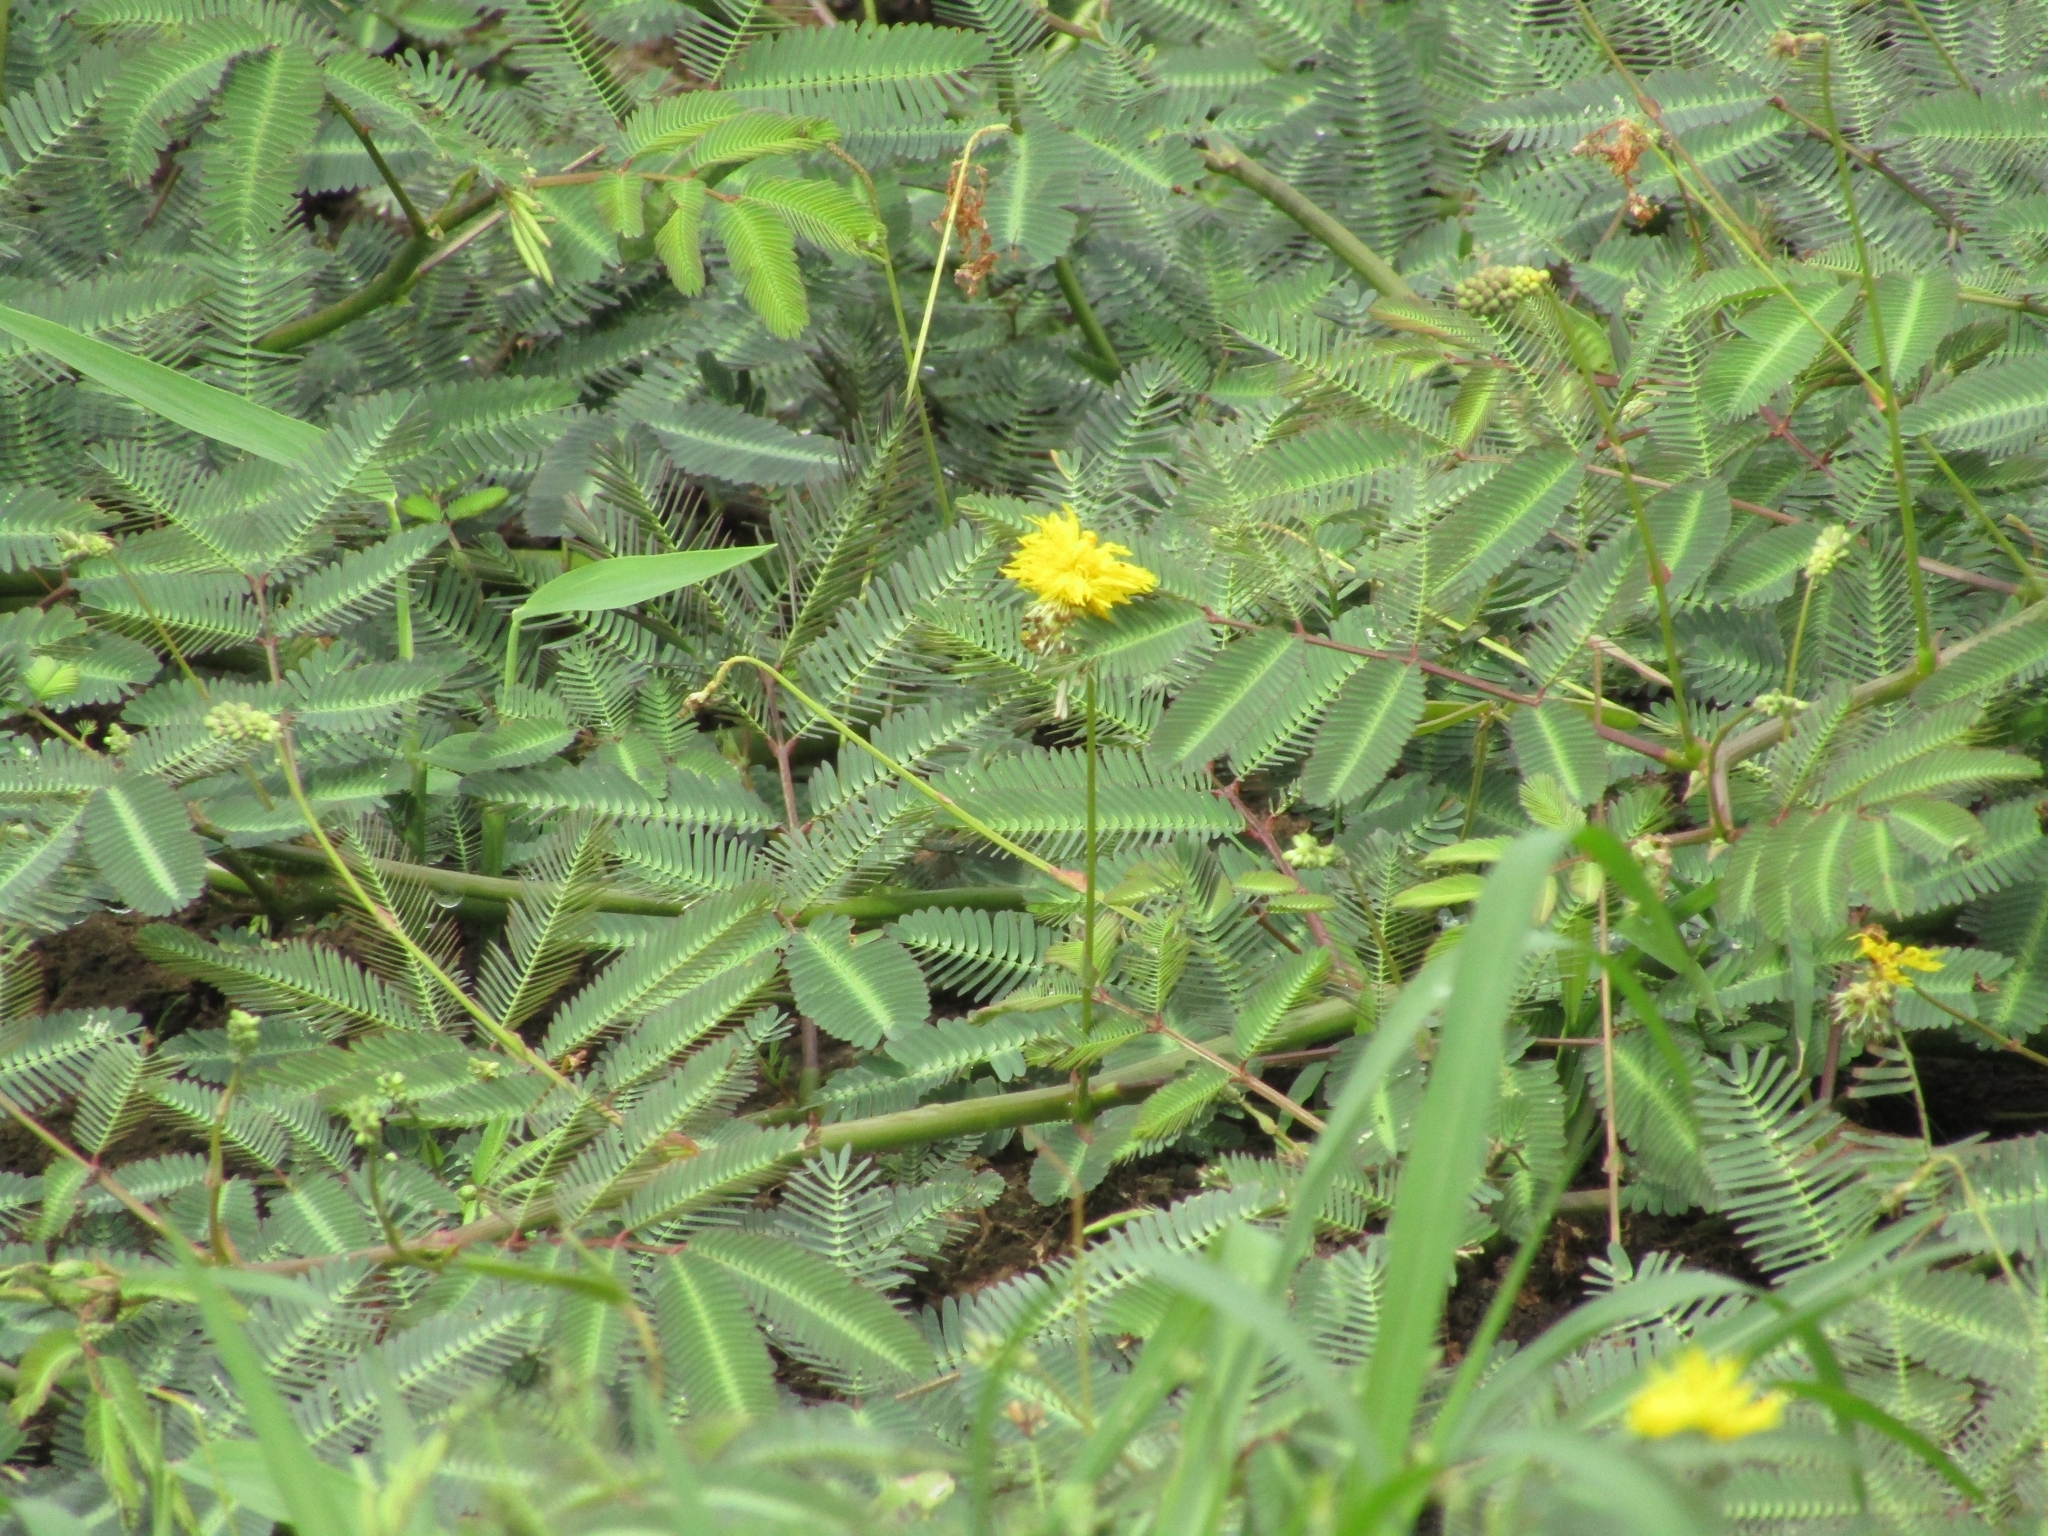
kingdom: Plantae
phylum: Tracheophyta
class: Magnoliopsida
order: Fabales
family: Fabaceae
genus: Neptunia
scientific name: Neptunia prostrata
